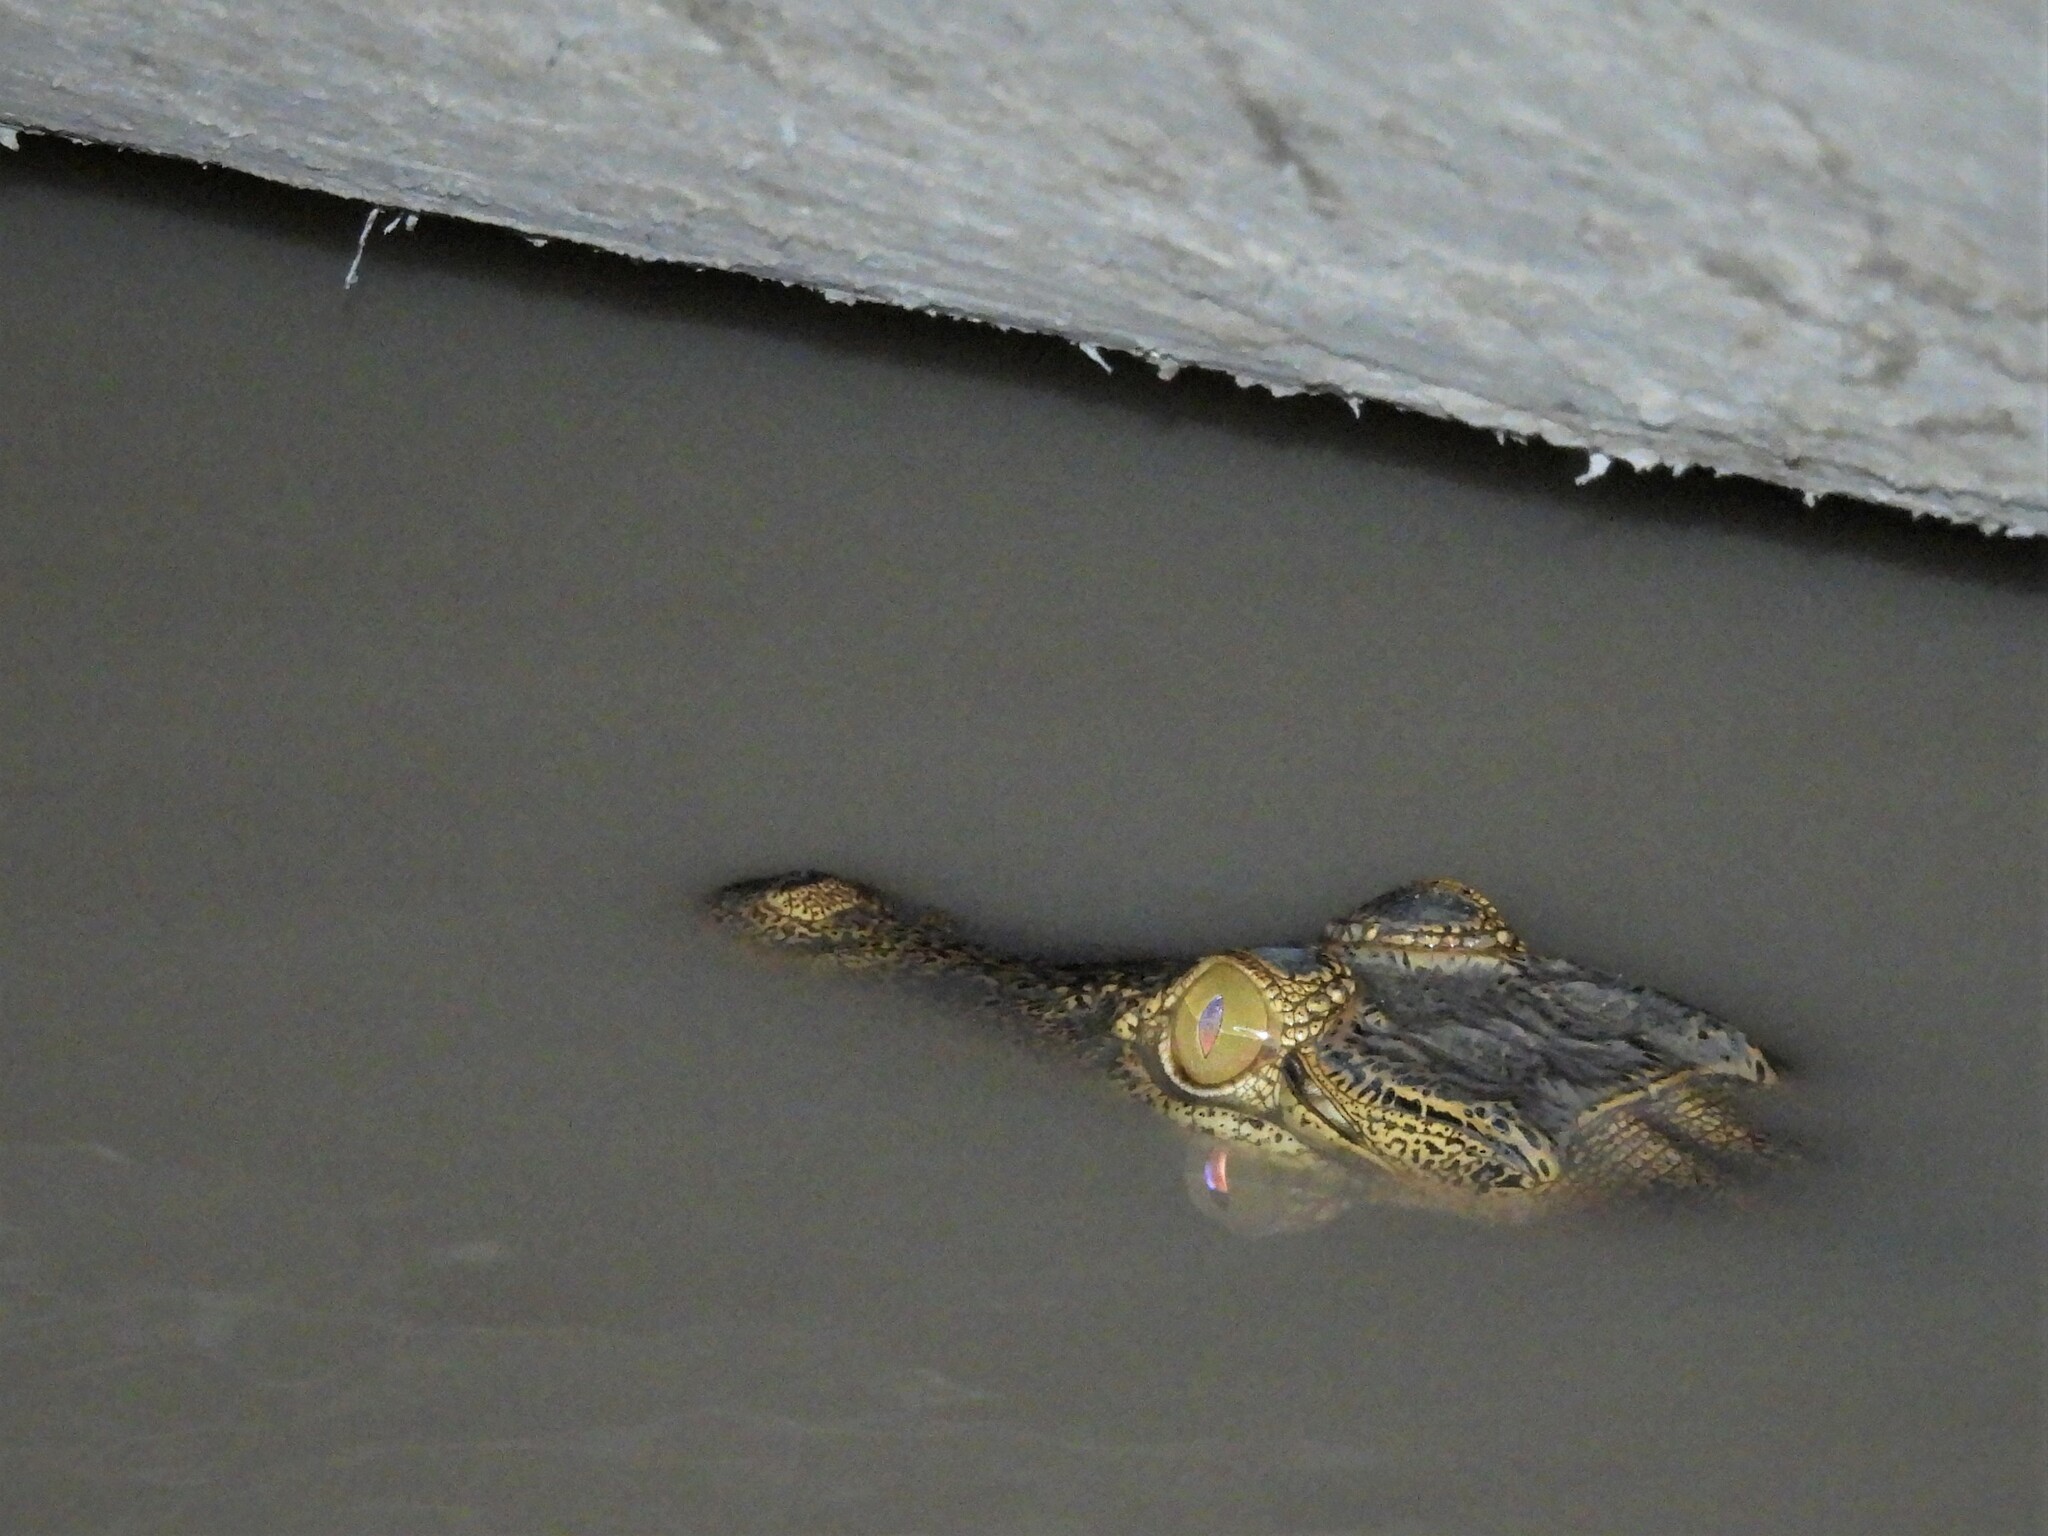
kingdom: Animalia
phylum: Chordata
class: Crocodylia
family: Crocodylidae
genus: Crocodylus
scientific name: Crocodylus niloticus
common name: Nile crocodile
